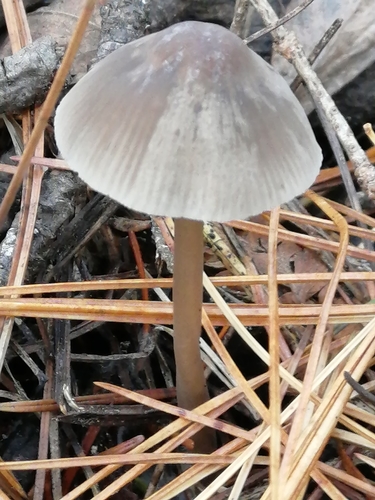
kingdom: Fungi
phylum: Basidiomycota
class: Agaricomycetes
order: Agaricales
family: Mycenaceae
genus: Mycena
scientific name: Mycena
